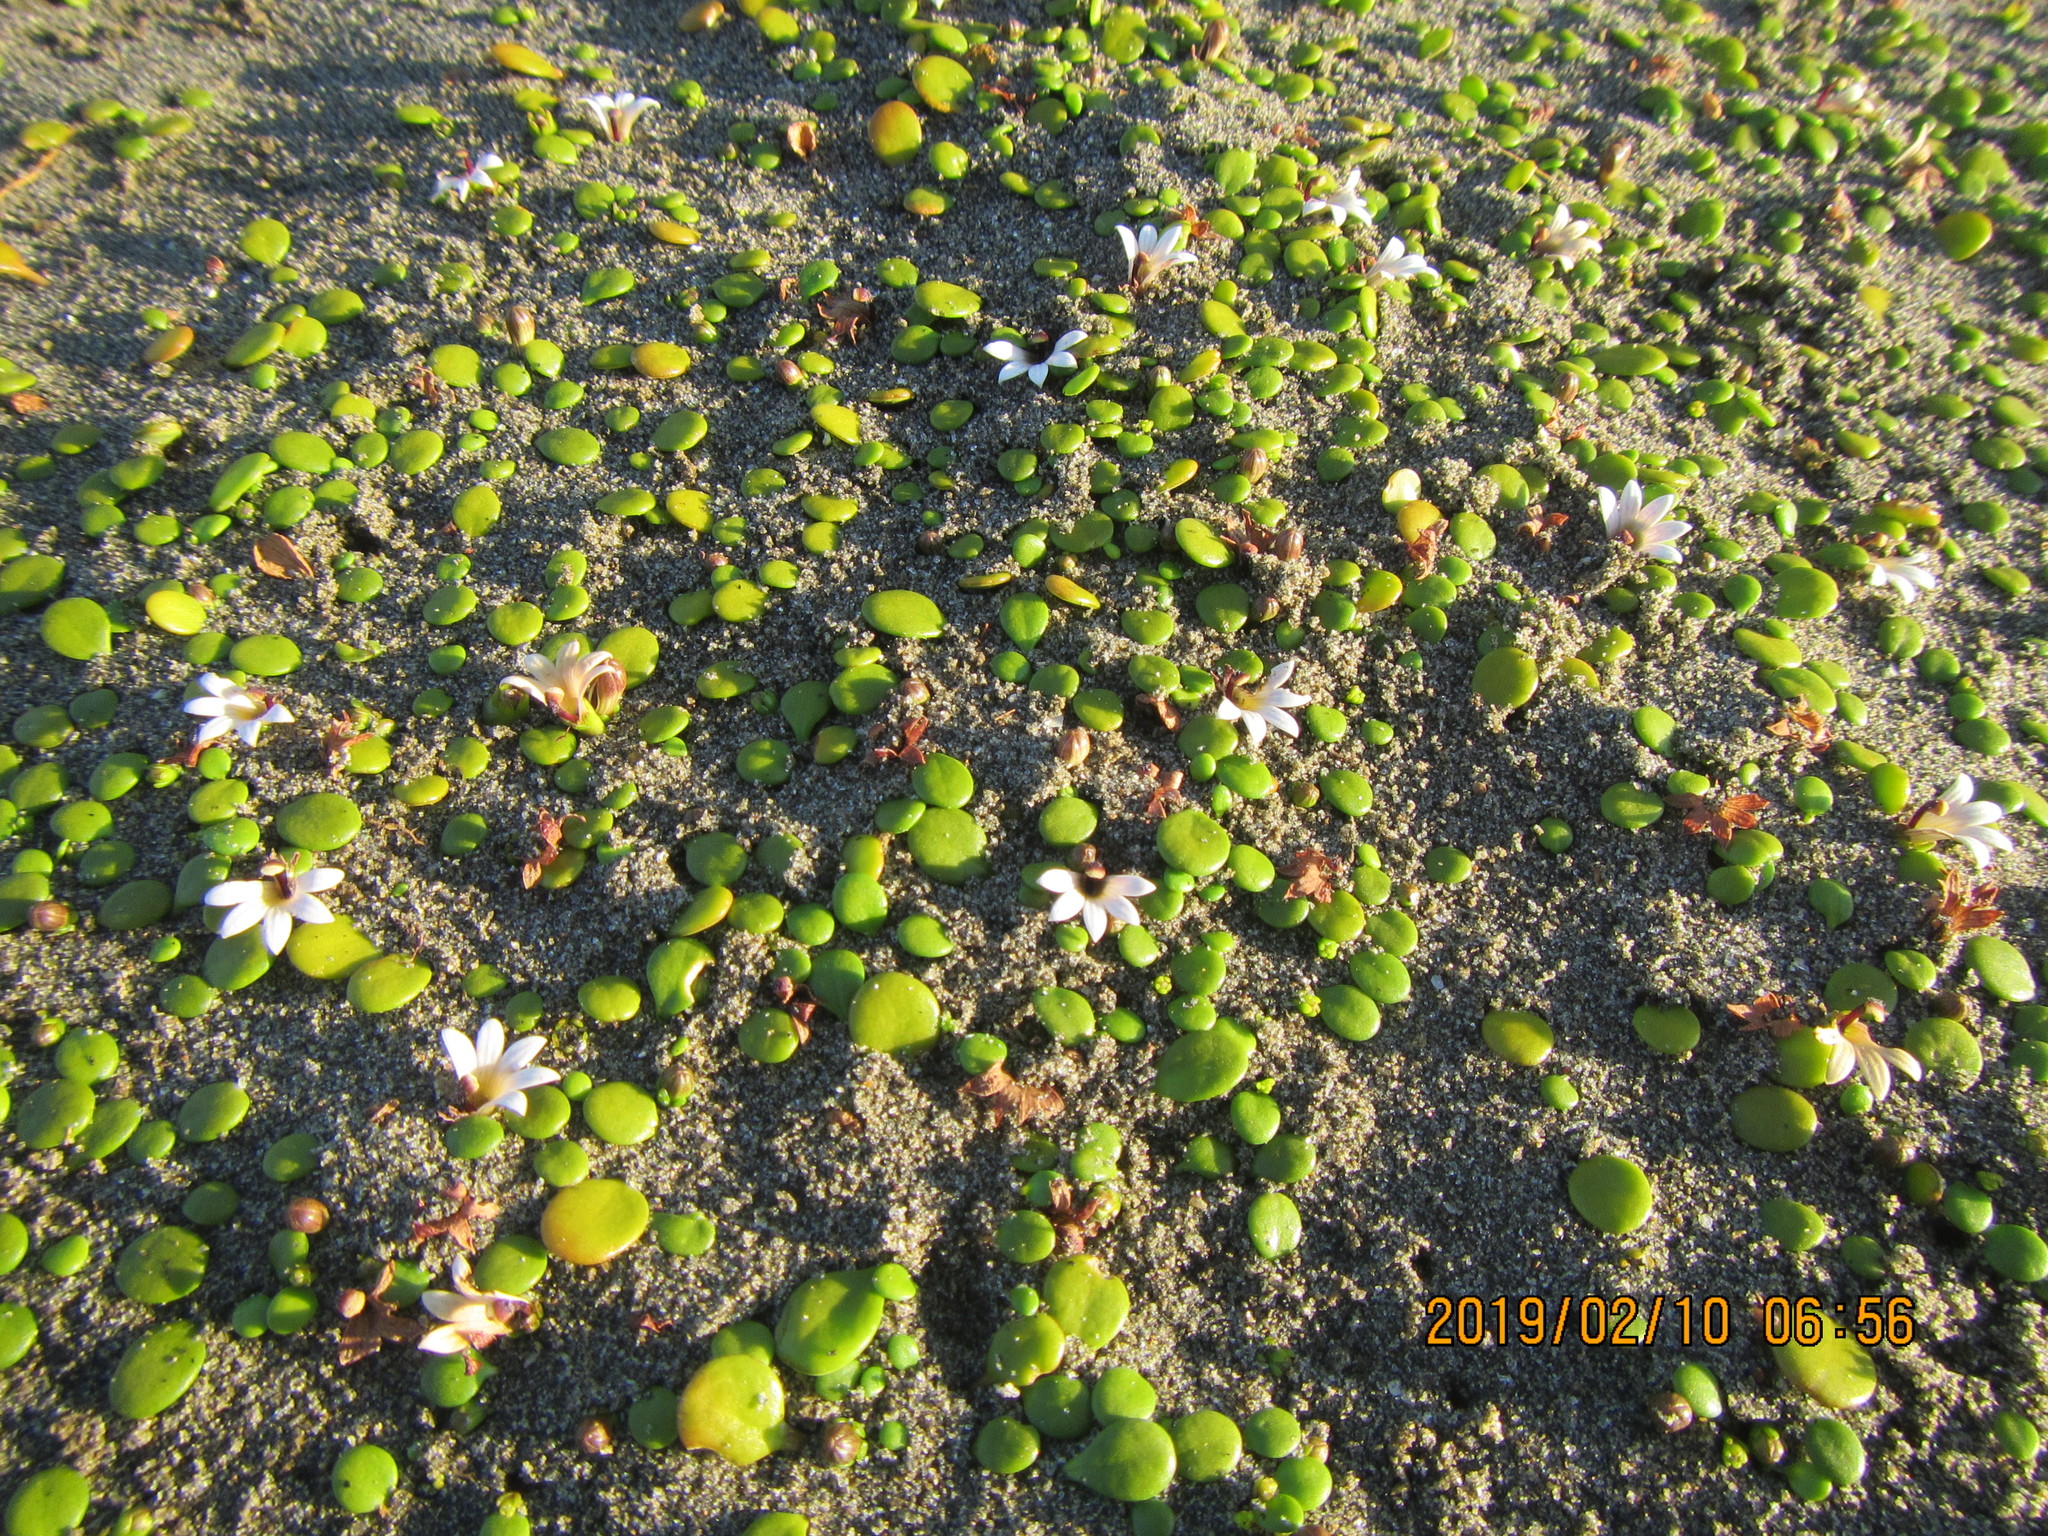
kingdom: Plantae
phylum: Tracheophyta
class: Magnoliopsida
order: Asterales
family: Goodeniaceae
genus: Goodenia
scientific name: Goodenia heenanii
